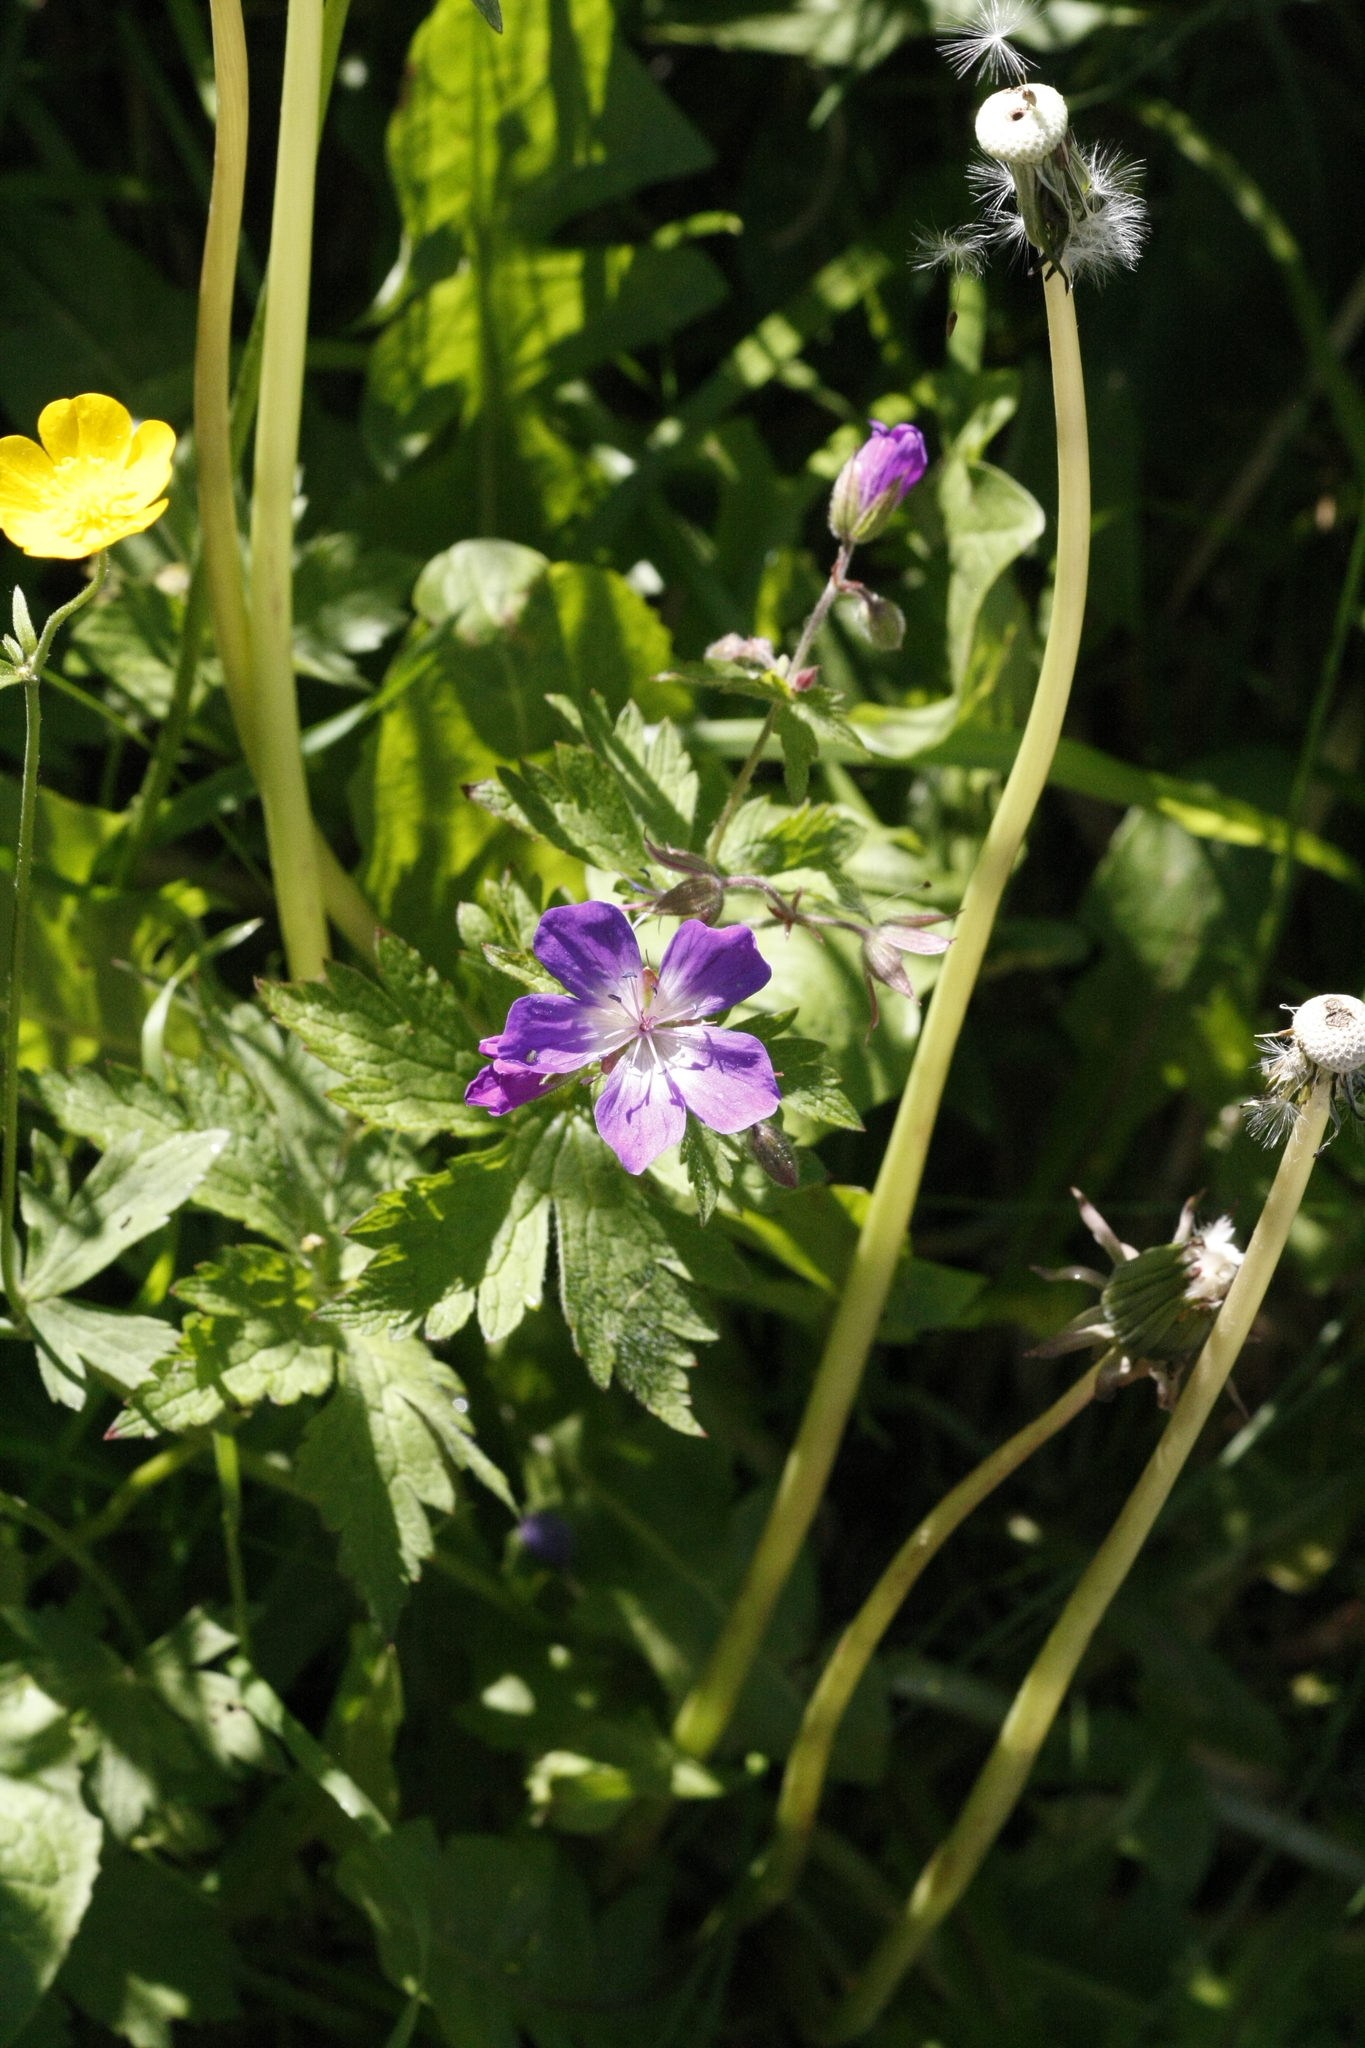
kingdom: Plantae
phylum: Tracheophyta
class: Magnoliopsida
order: Geraniales
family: Geraniaceae
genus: Geranium
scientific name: Geranium sylvaticum
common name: Wood crane's-bill
